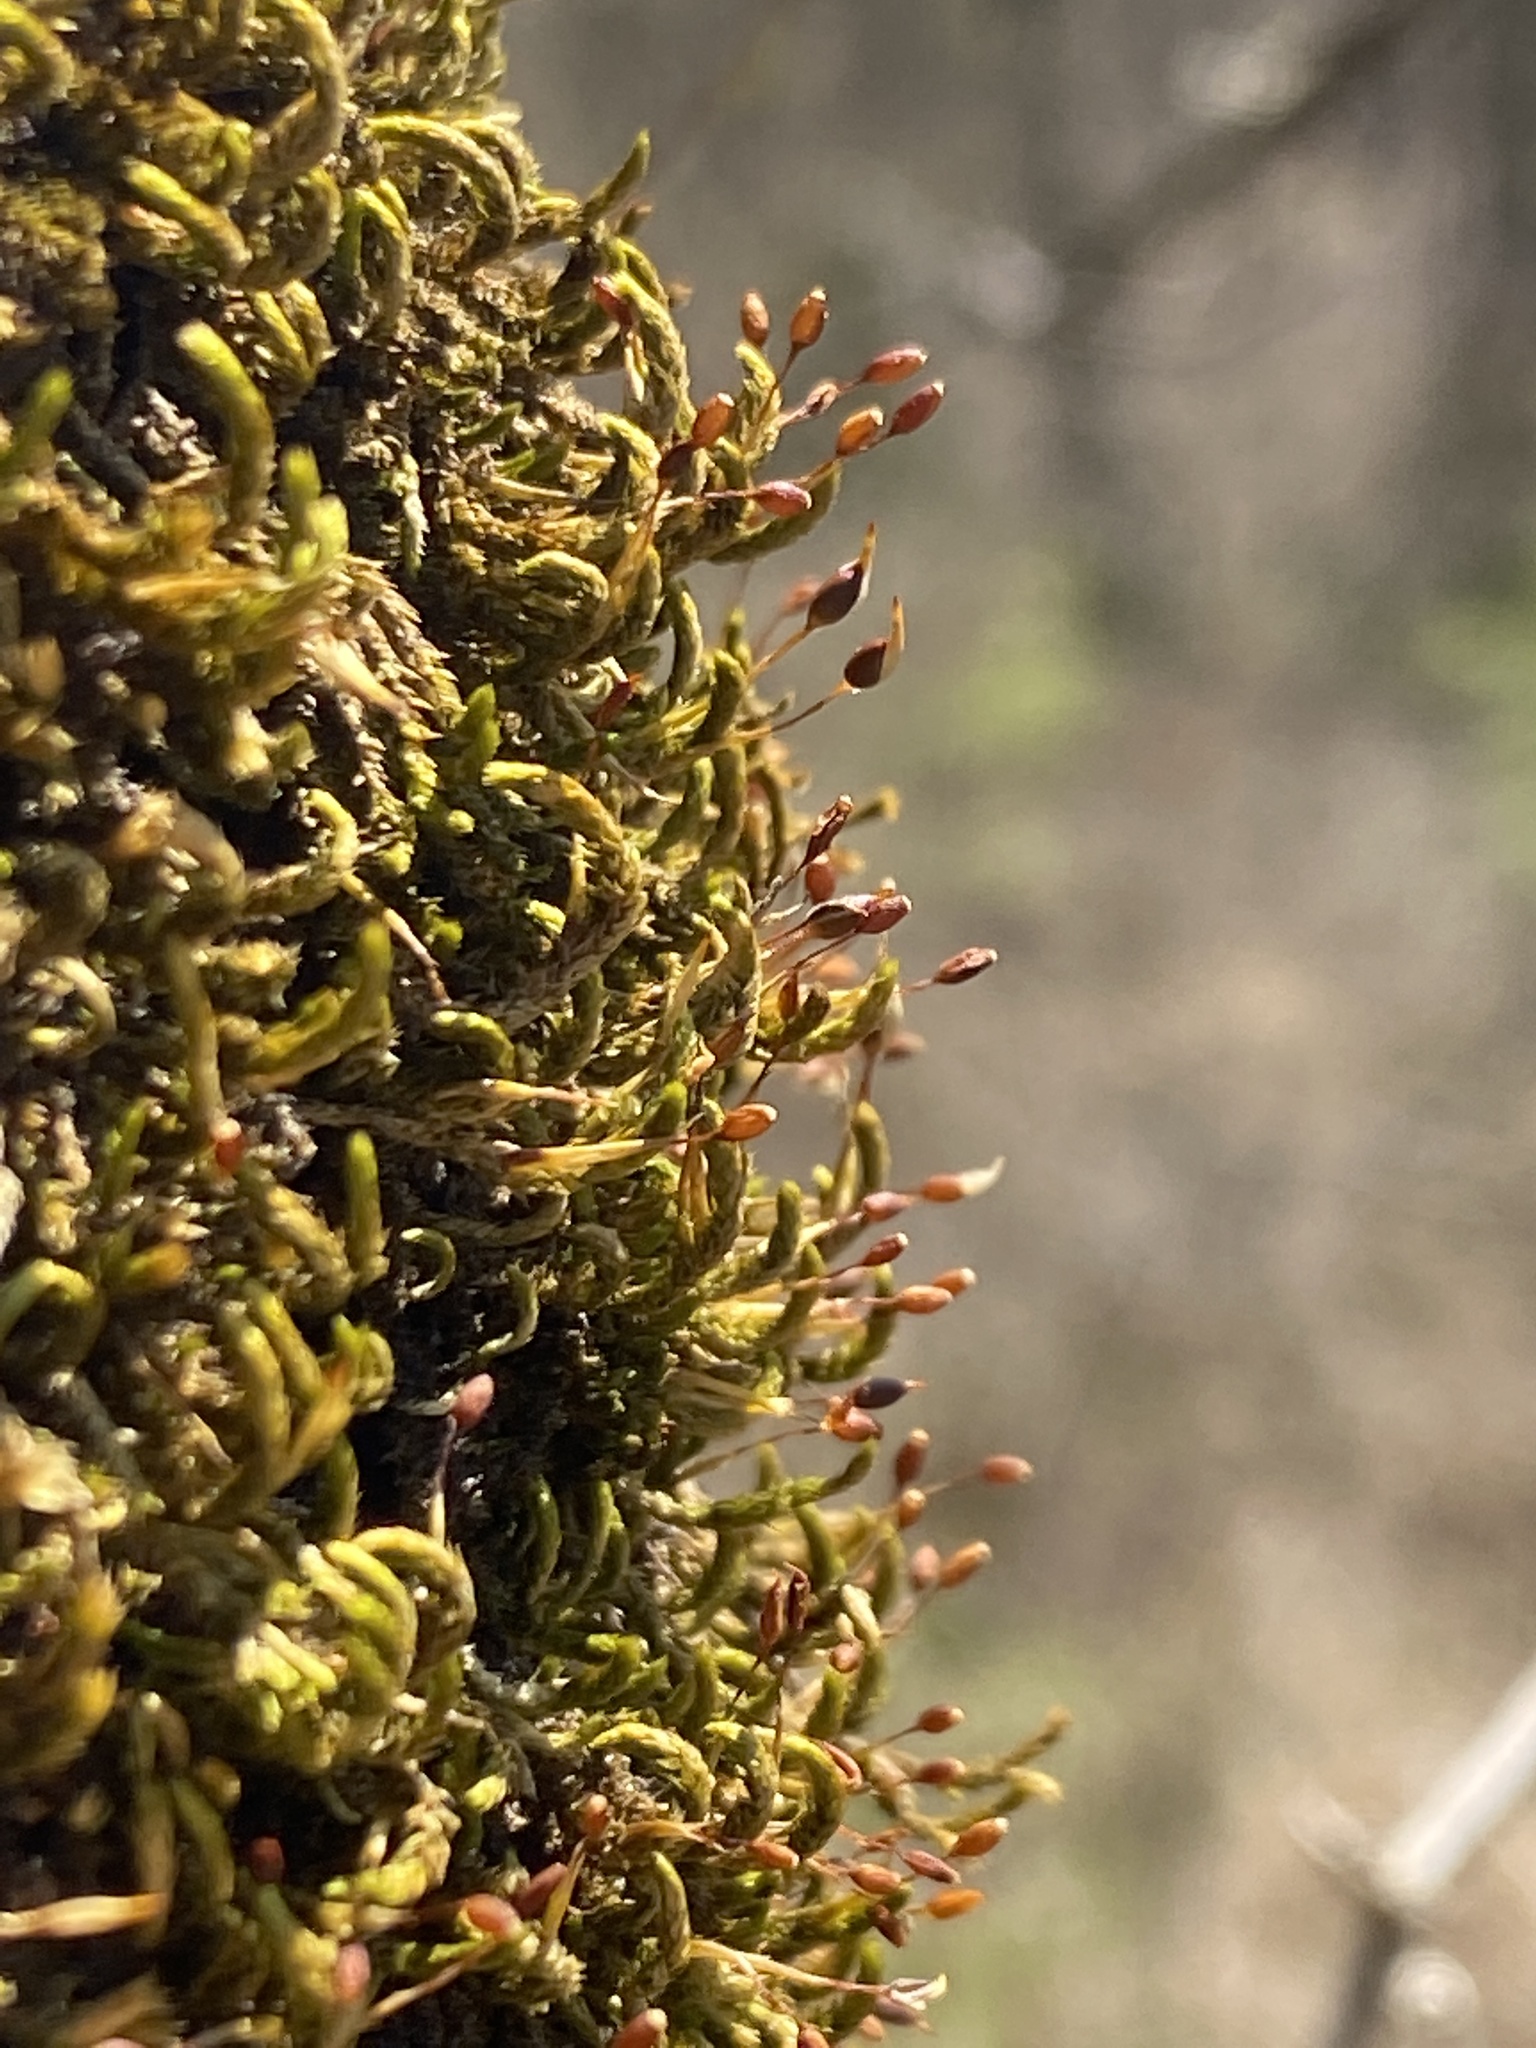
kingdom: Plantae
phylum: Bryophyta
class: Bryopsida
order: Hypnales
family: Leucodontaceae
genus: Leucodon
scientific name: Leucodon julaceus
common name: Smooth hook moss
